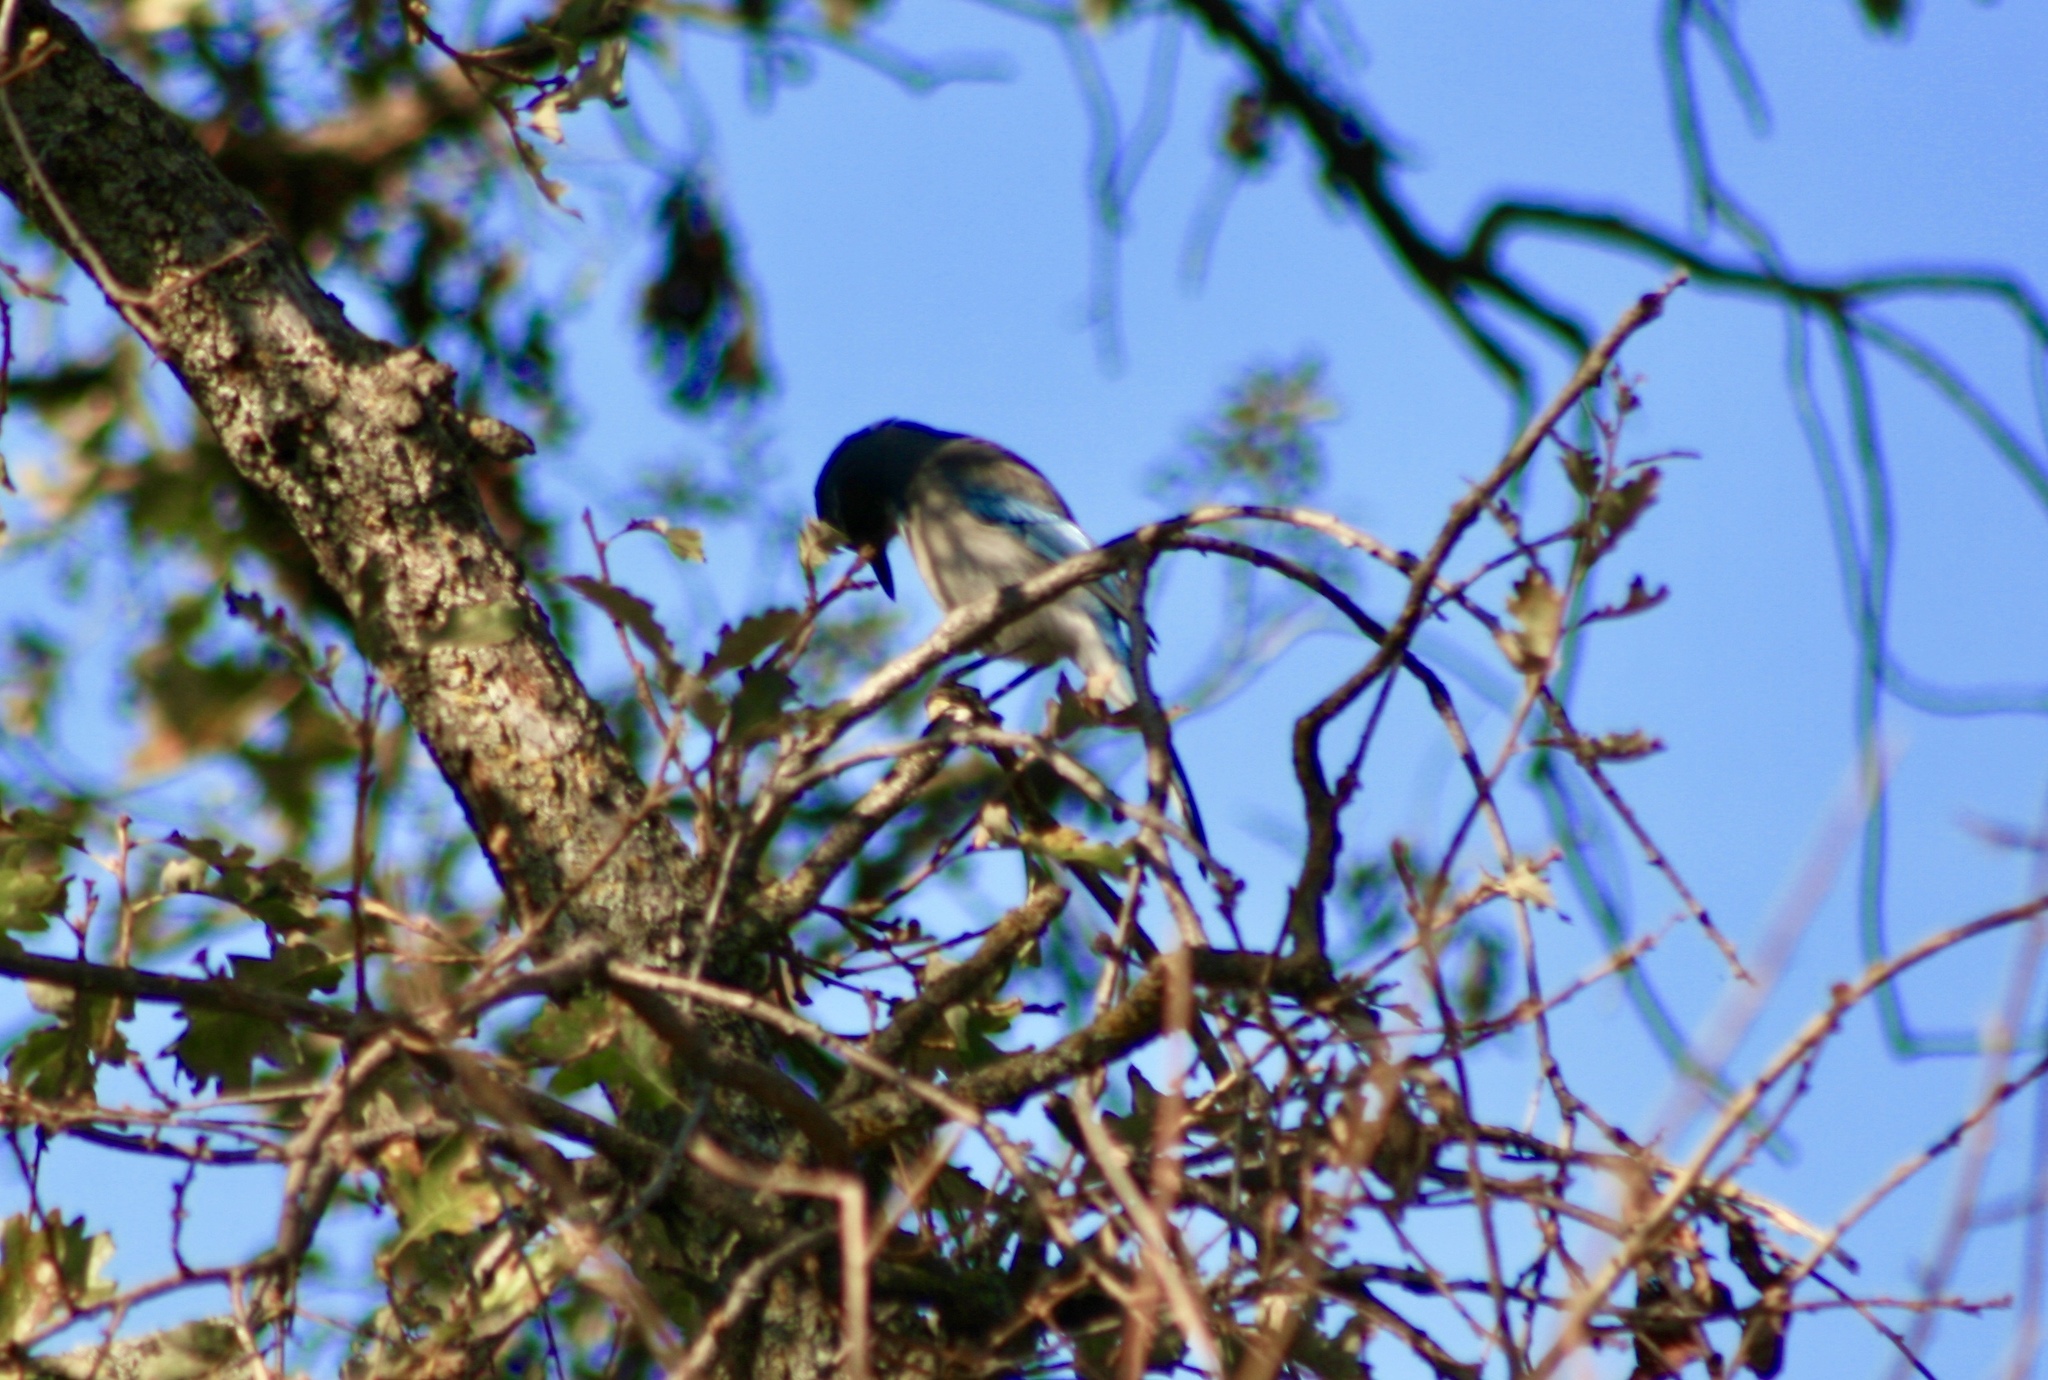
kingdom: Animalia
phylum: Chordata
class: Aves
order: Passeriformes
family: Corvidae
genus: Aphelocoma
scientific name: Aphelocoma californica
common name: California scrub-jay
